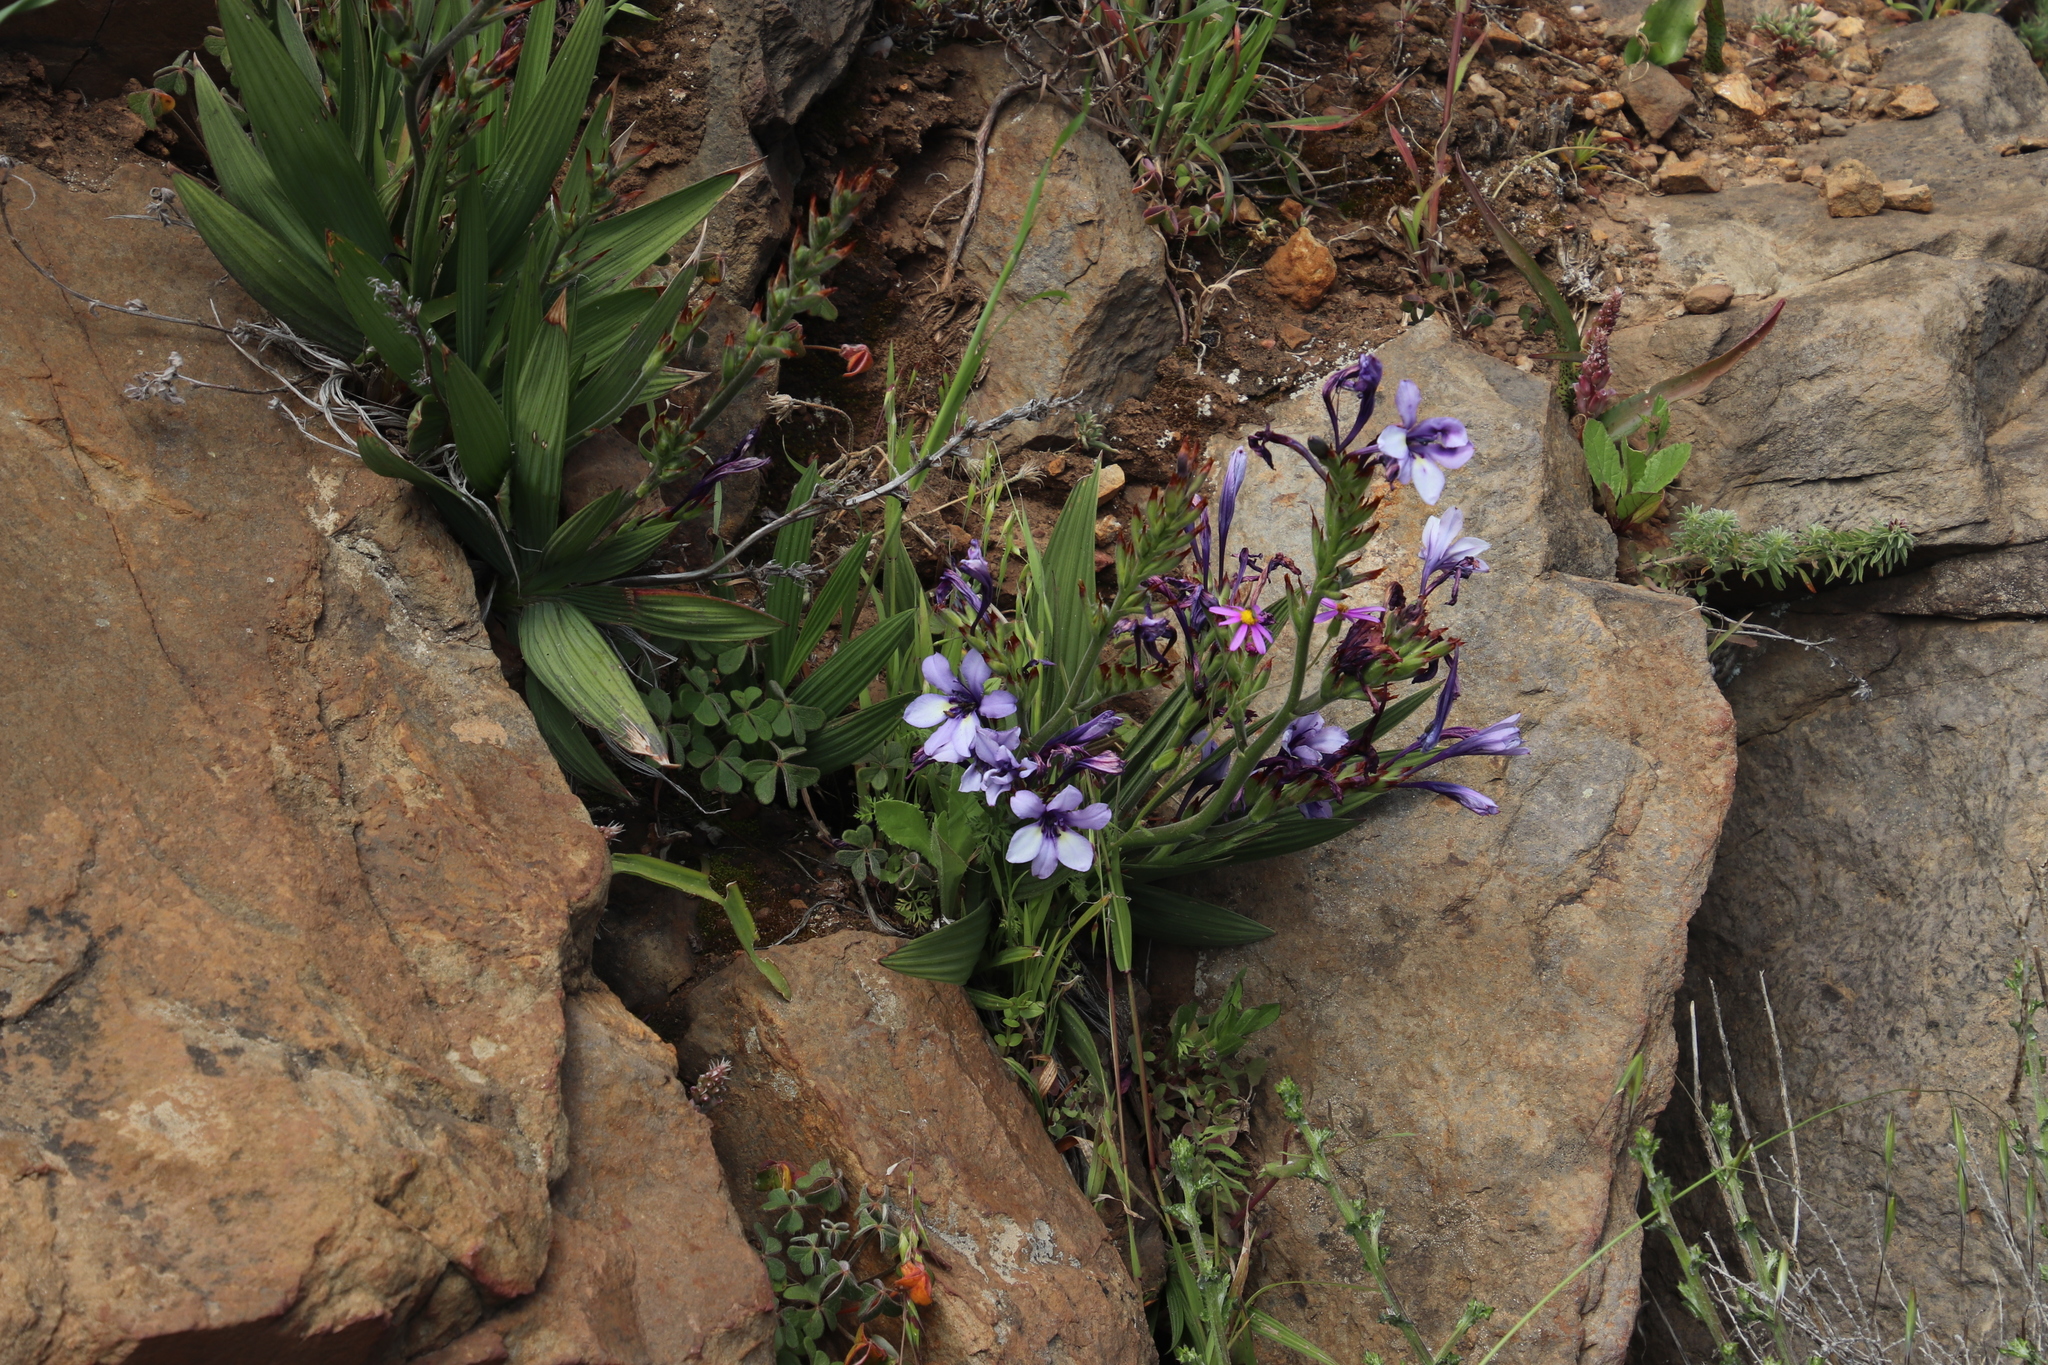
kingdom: Plantae
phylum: Tracheophyta
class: Liliopsida
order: Asparagales
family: Iridaceae
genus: Babiana
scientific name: Babiana fragrans
